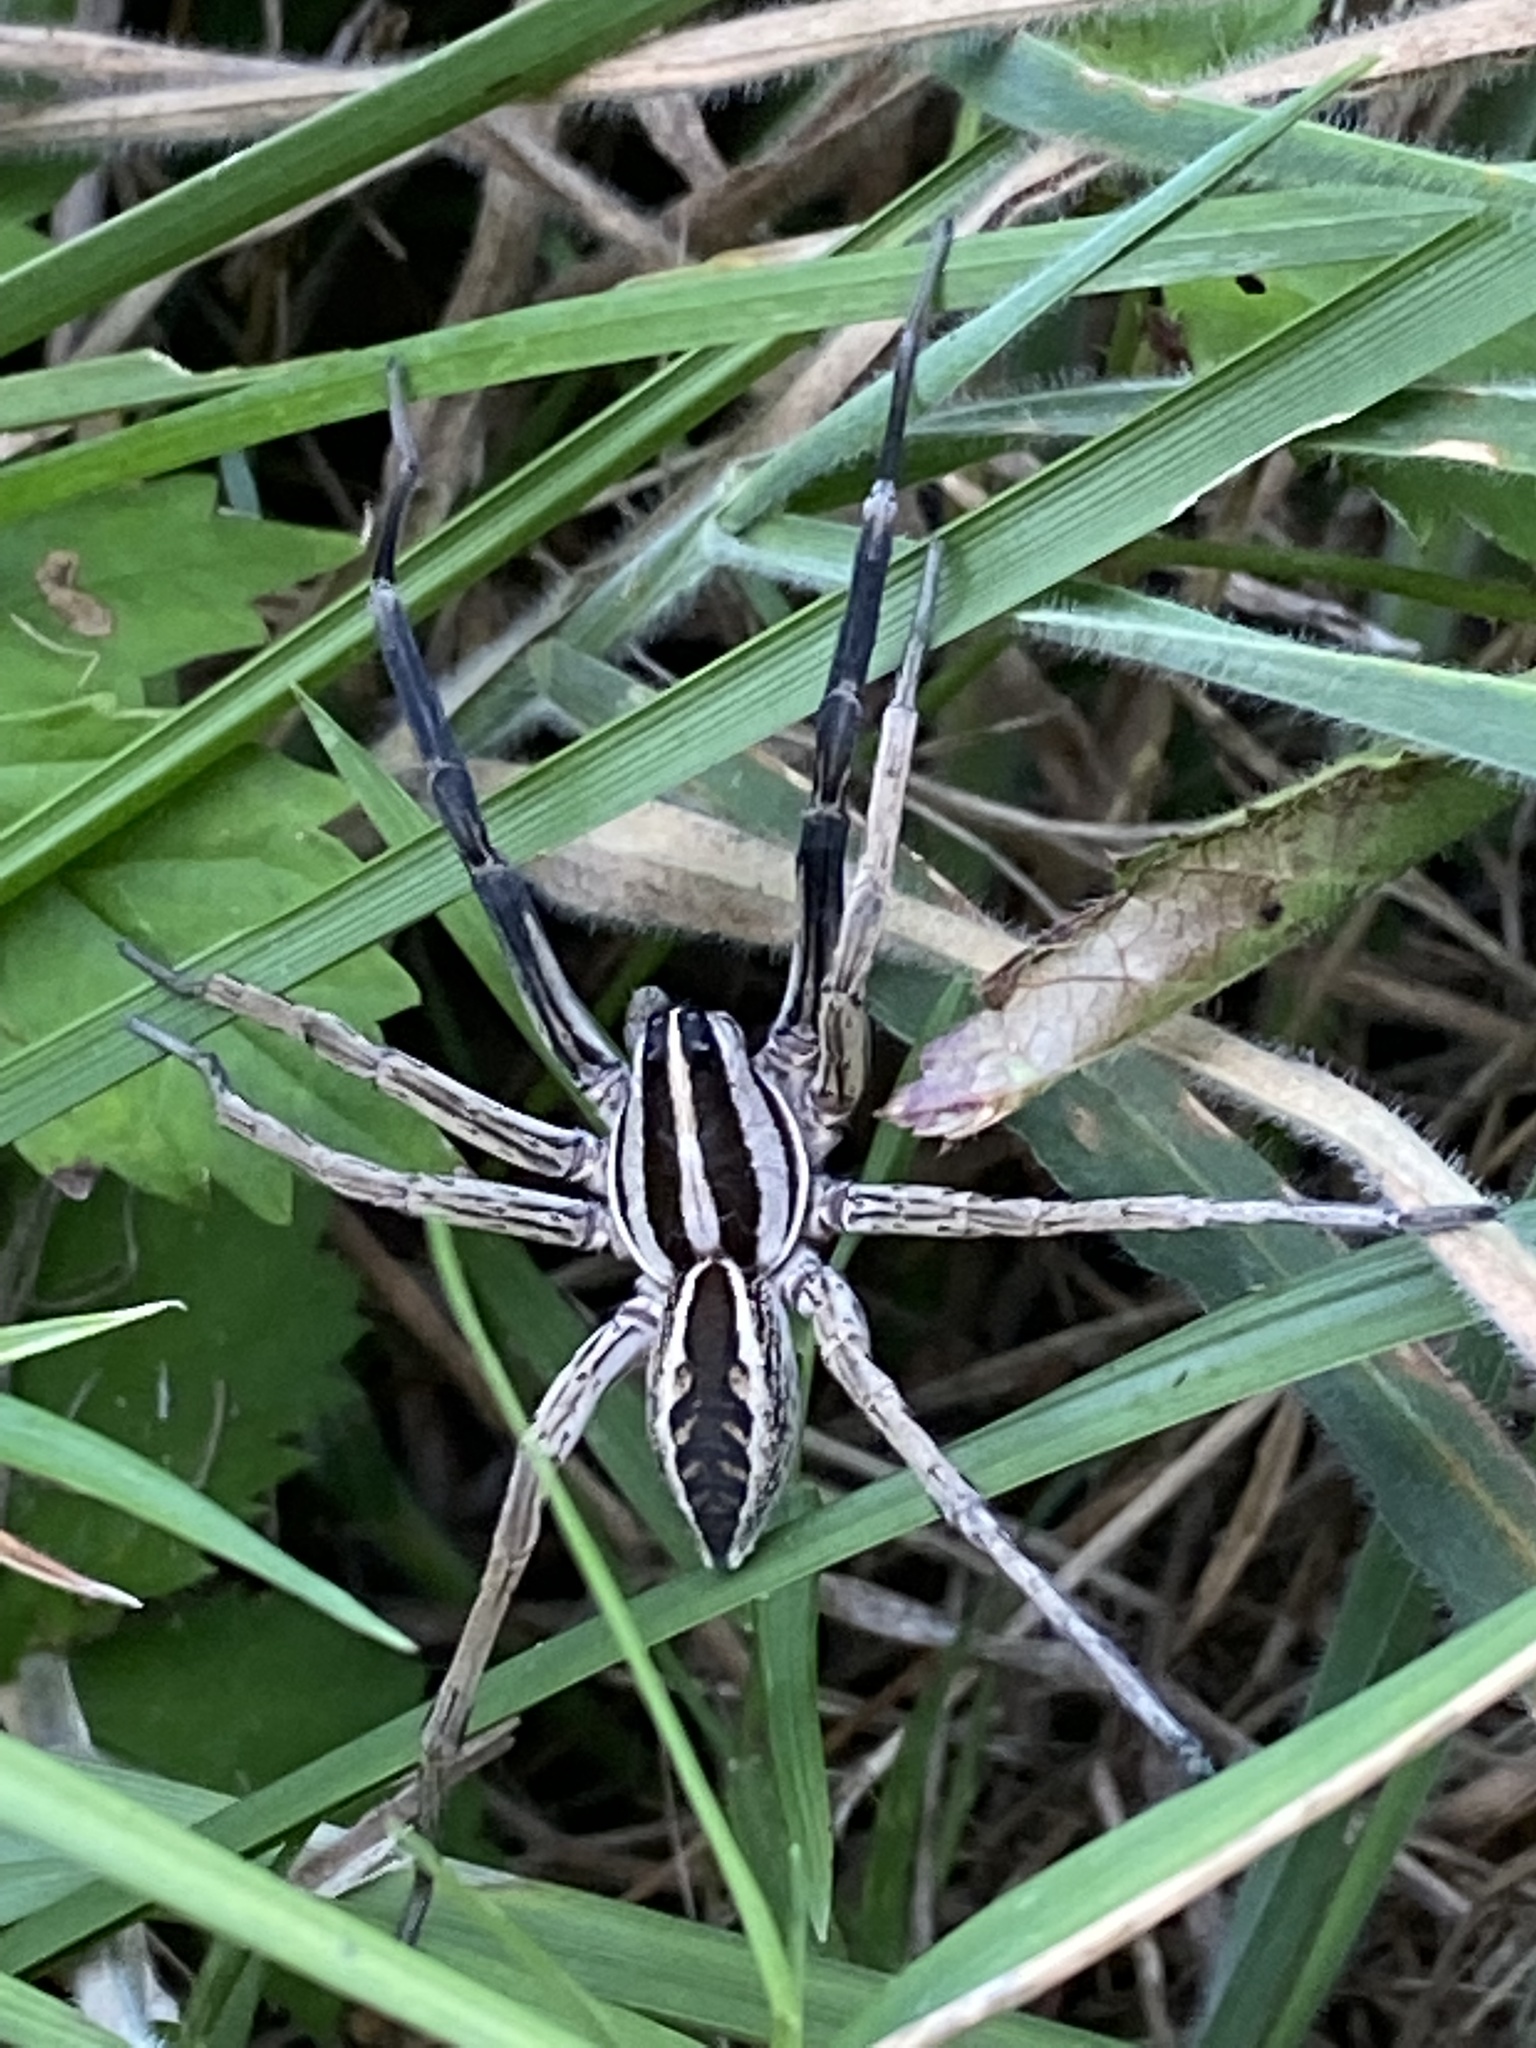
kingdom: Animalia
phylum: Arthropoda
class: Arachnida
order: Araneae
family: Lycosidae
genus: Rabidosa
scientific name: Rabidosa rabida
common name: Rabid wolf spider
